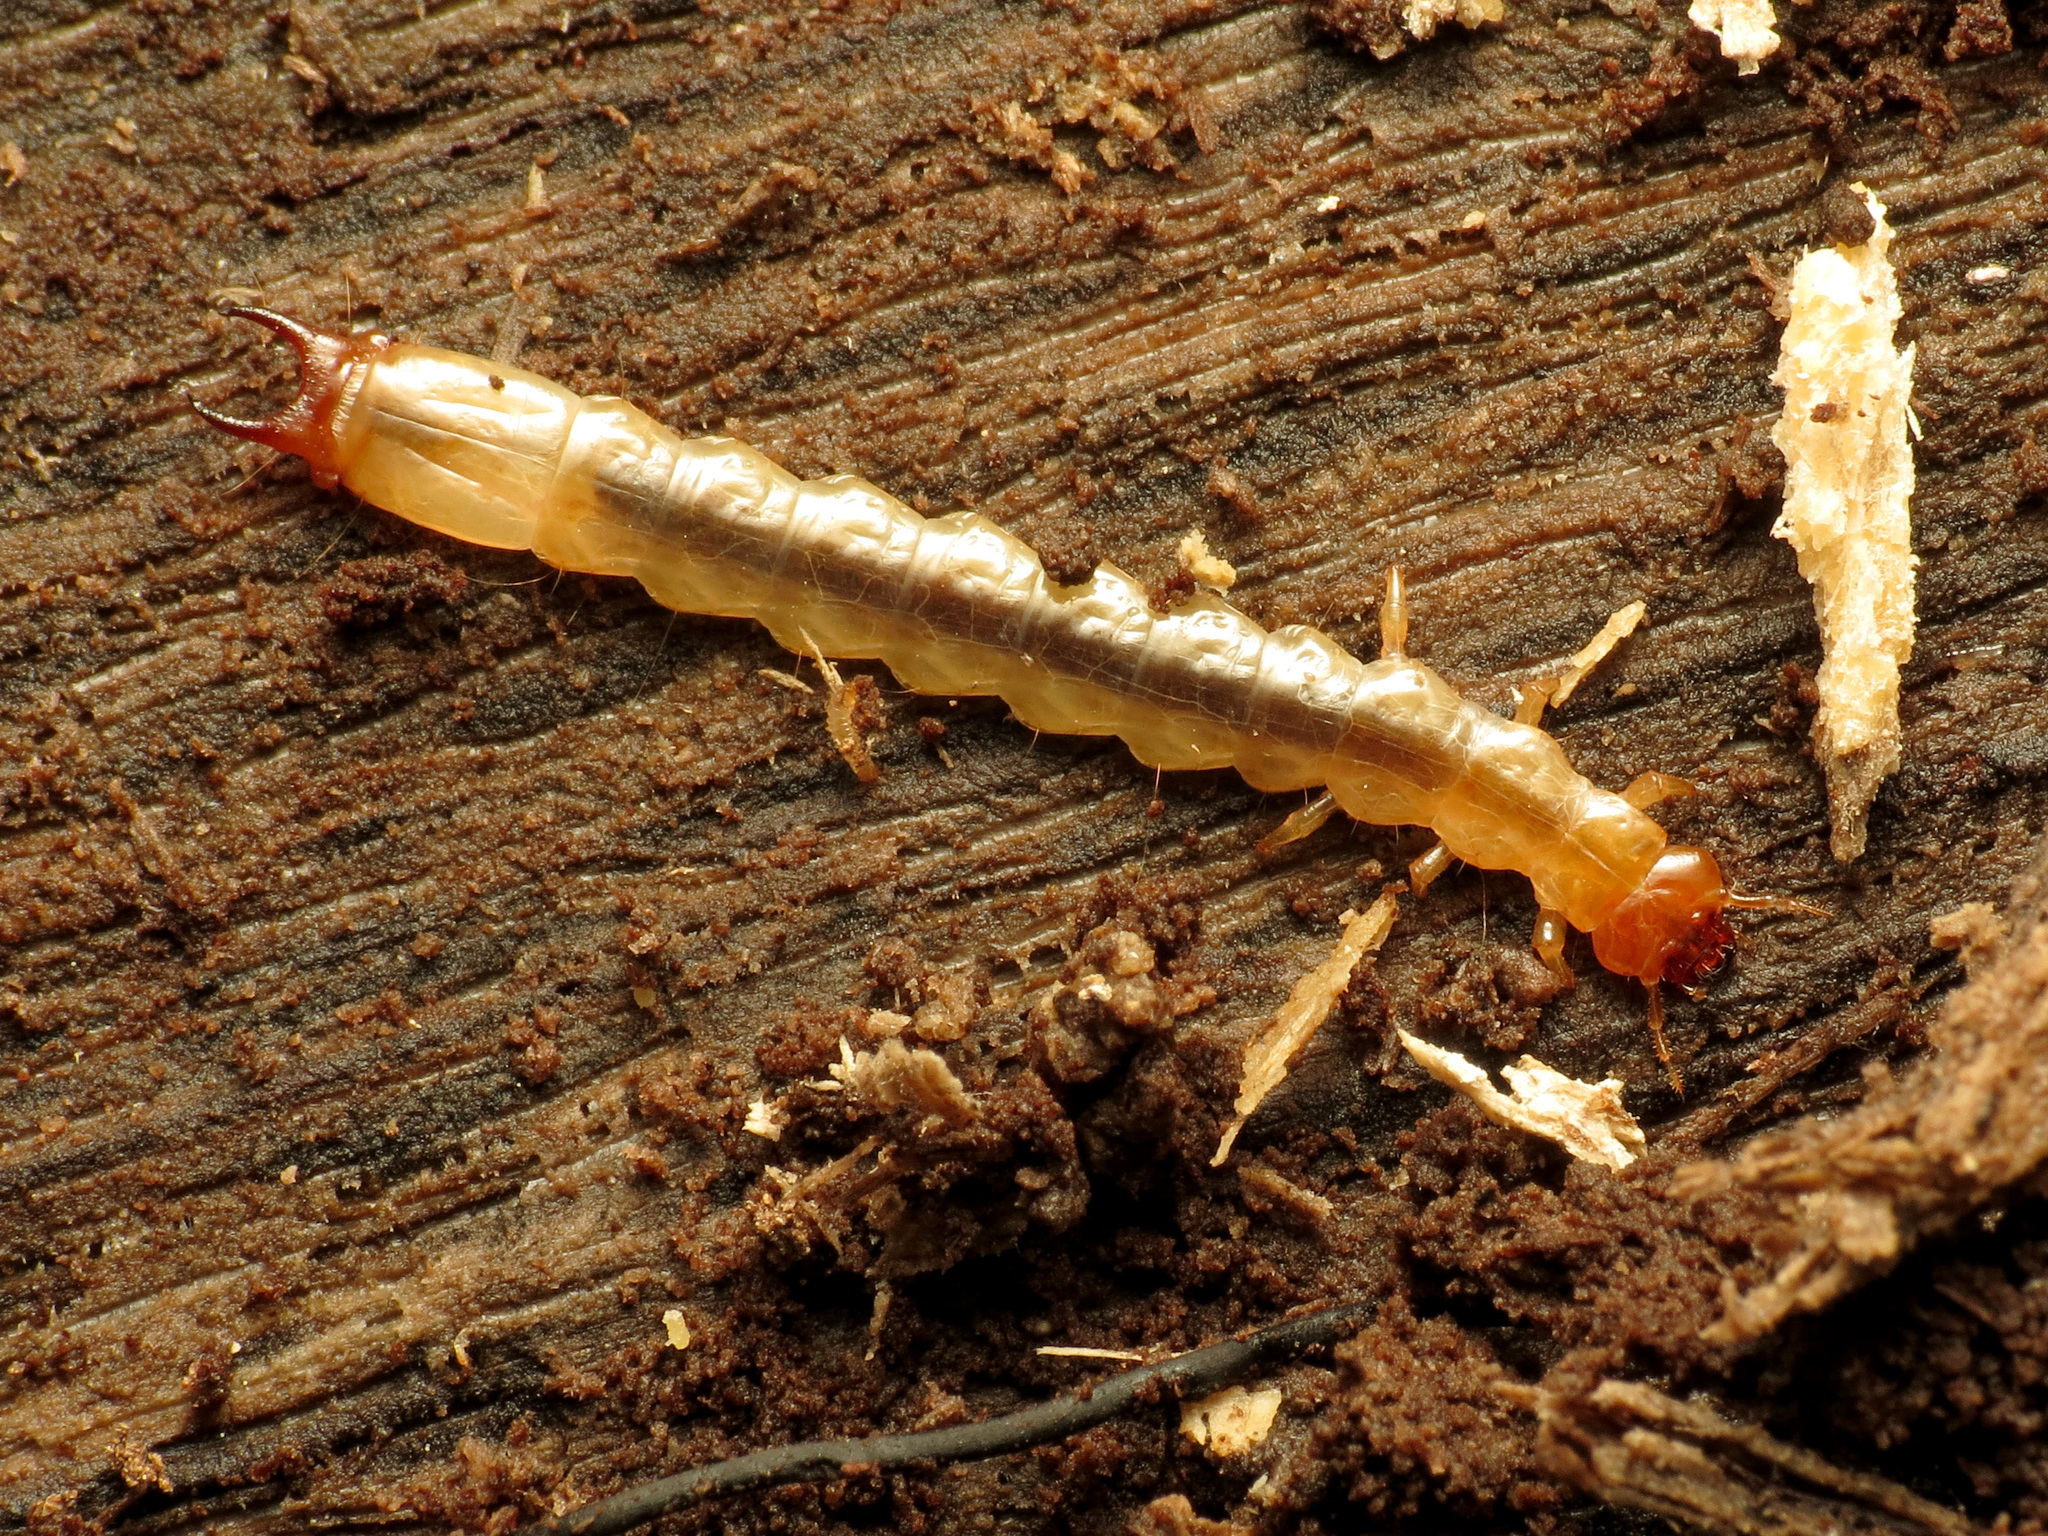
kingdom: Animalia
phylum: Arthropoda
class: Insecta
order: Coleoptera
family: Pyrochroidae
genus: Dendroides
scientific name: Dendroides canadensis
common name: Canada fire-colored beetle
